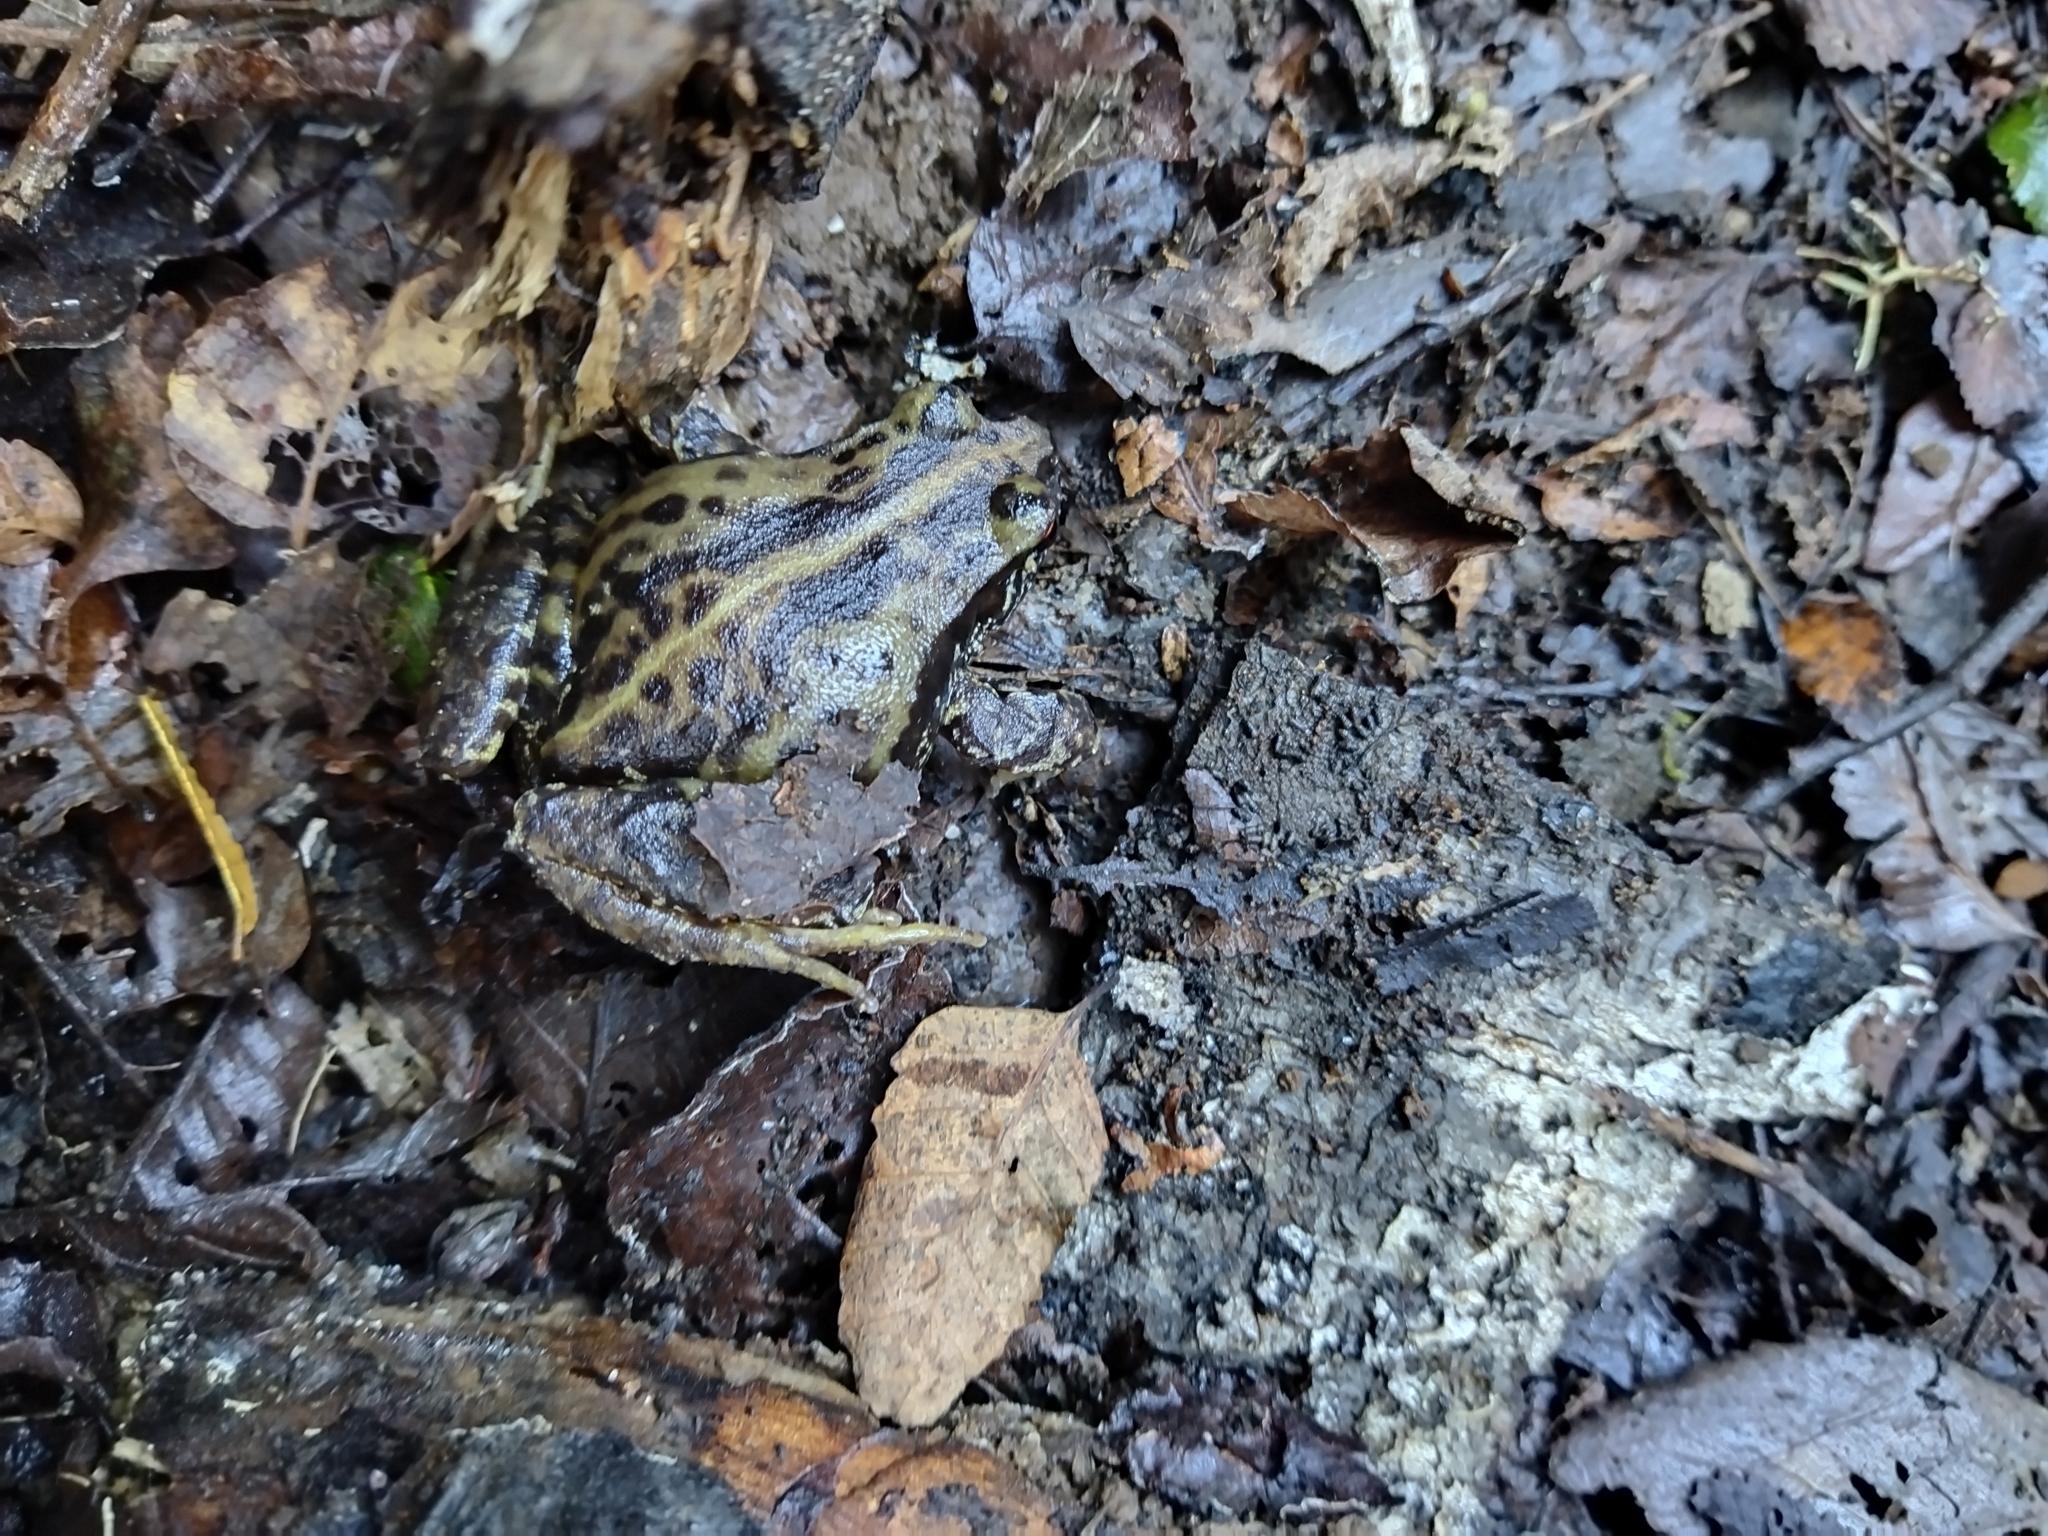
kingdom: Animalia
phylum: Chordata
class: Amphibia
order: Anura
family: Alsodidae
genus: Eupsophus
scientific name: Eupsophus roseus
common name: Rosy ground frog
